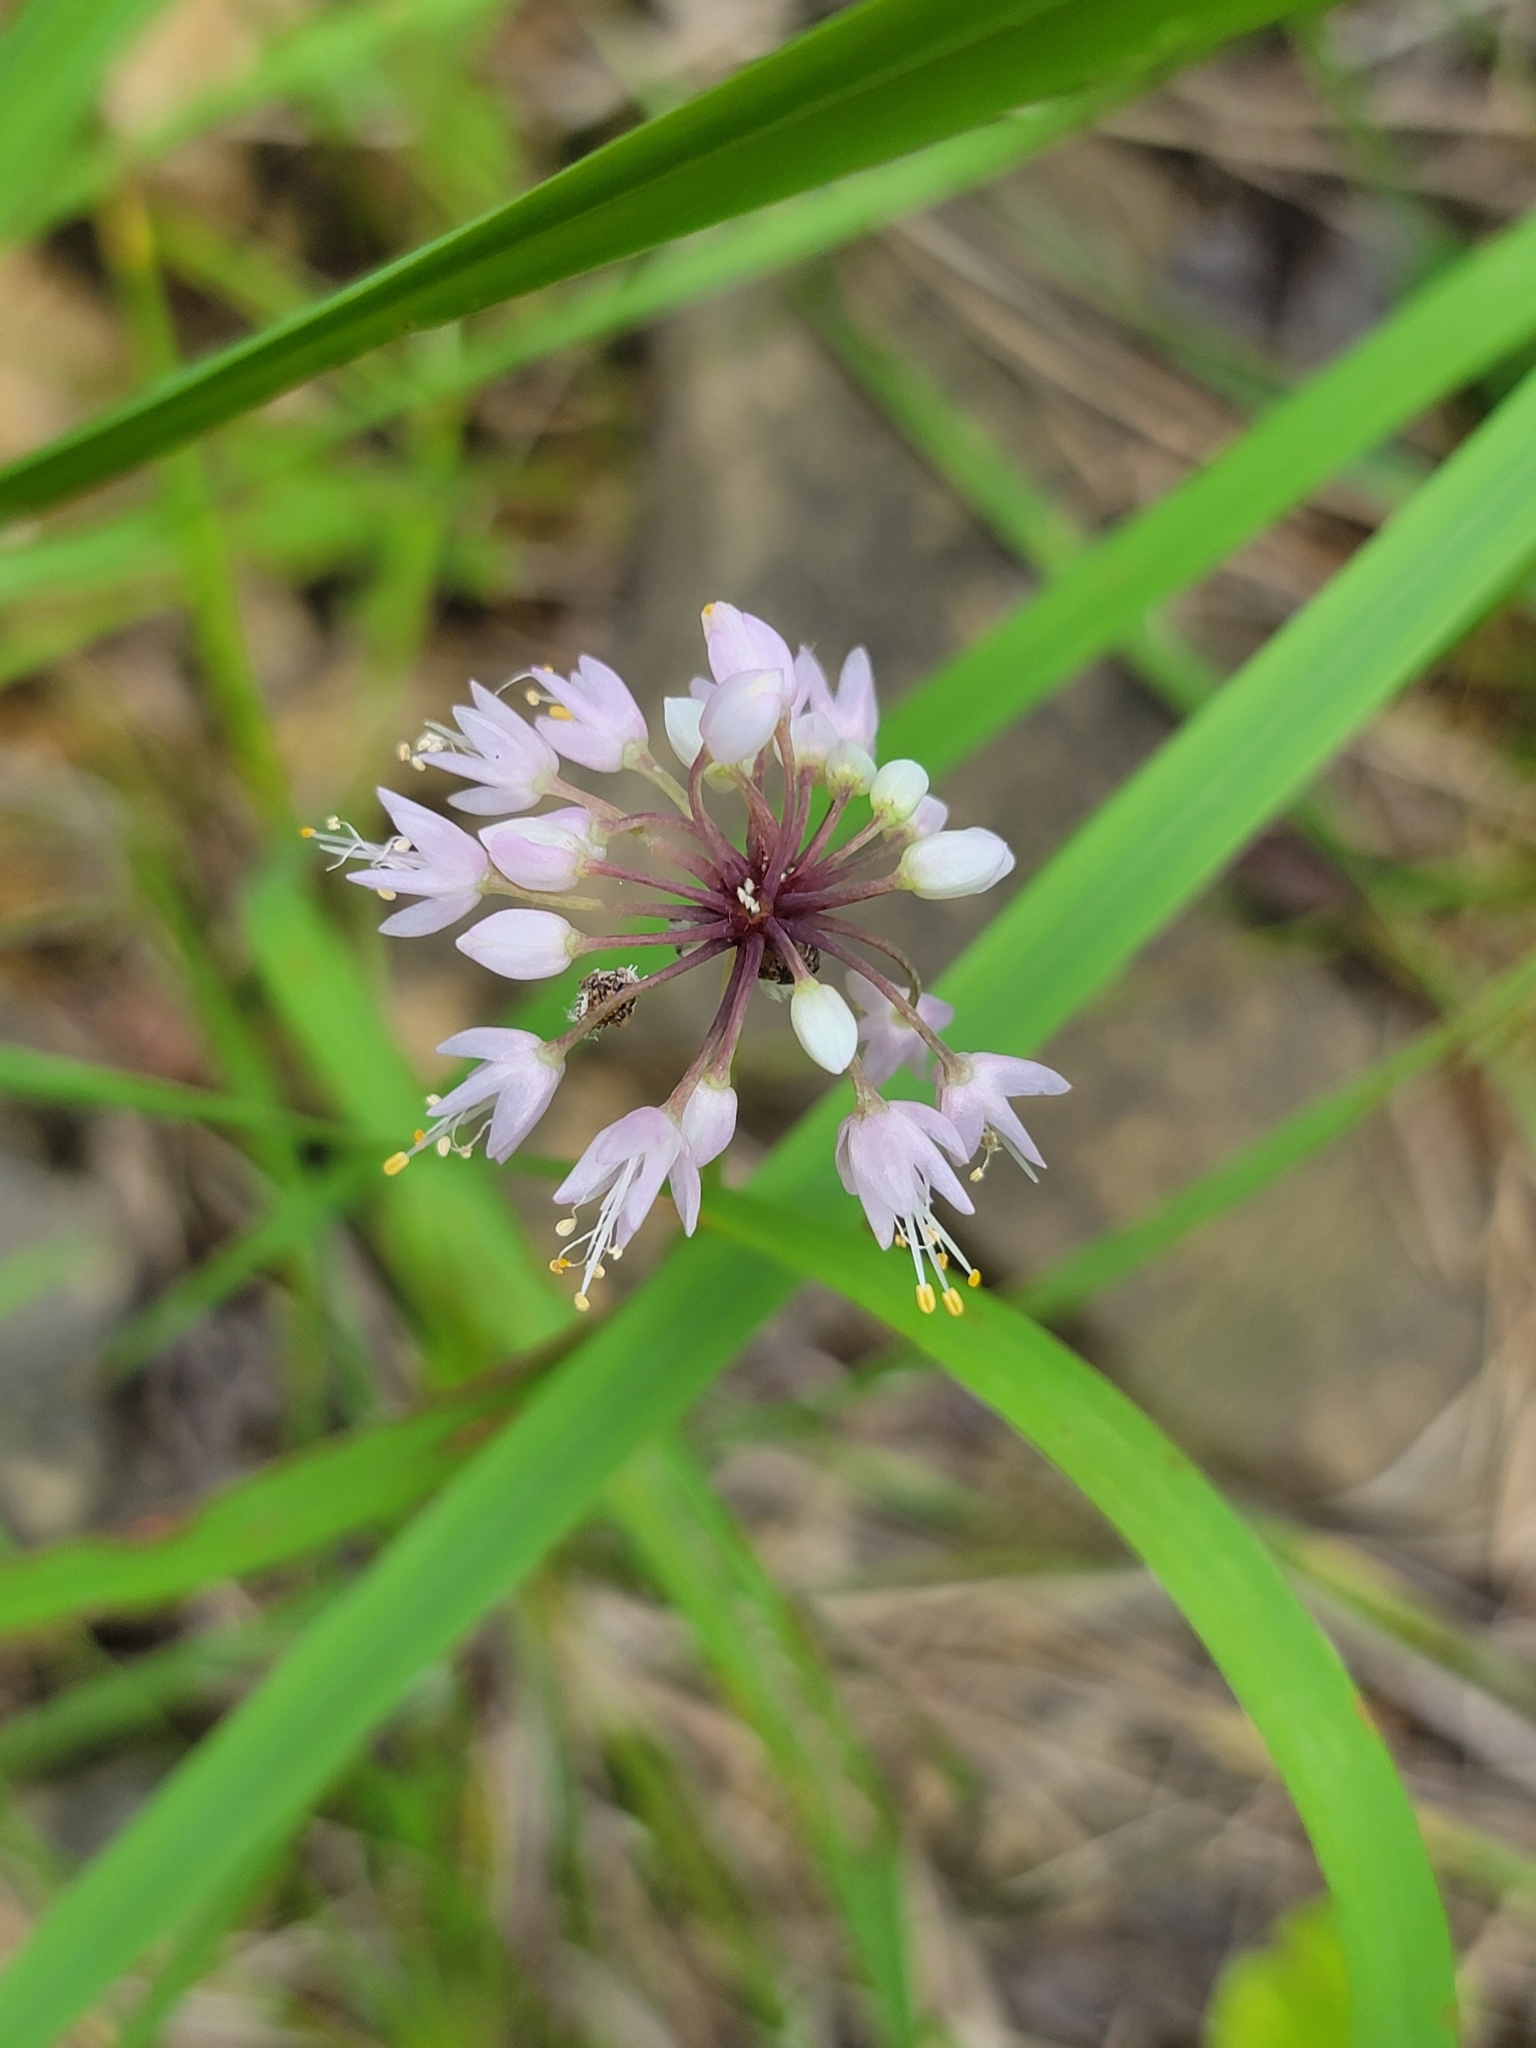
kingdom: Plantae
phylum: Tracheophyta
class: Liliopsida
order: Asparagales
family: Amaryllidaceae
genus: Allium
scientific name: Allium cernuum
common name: Nodding onion
